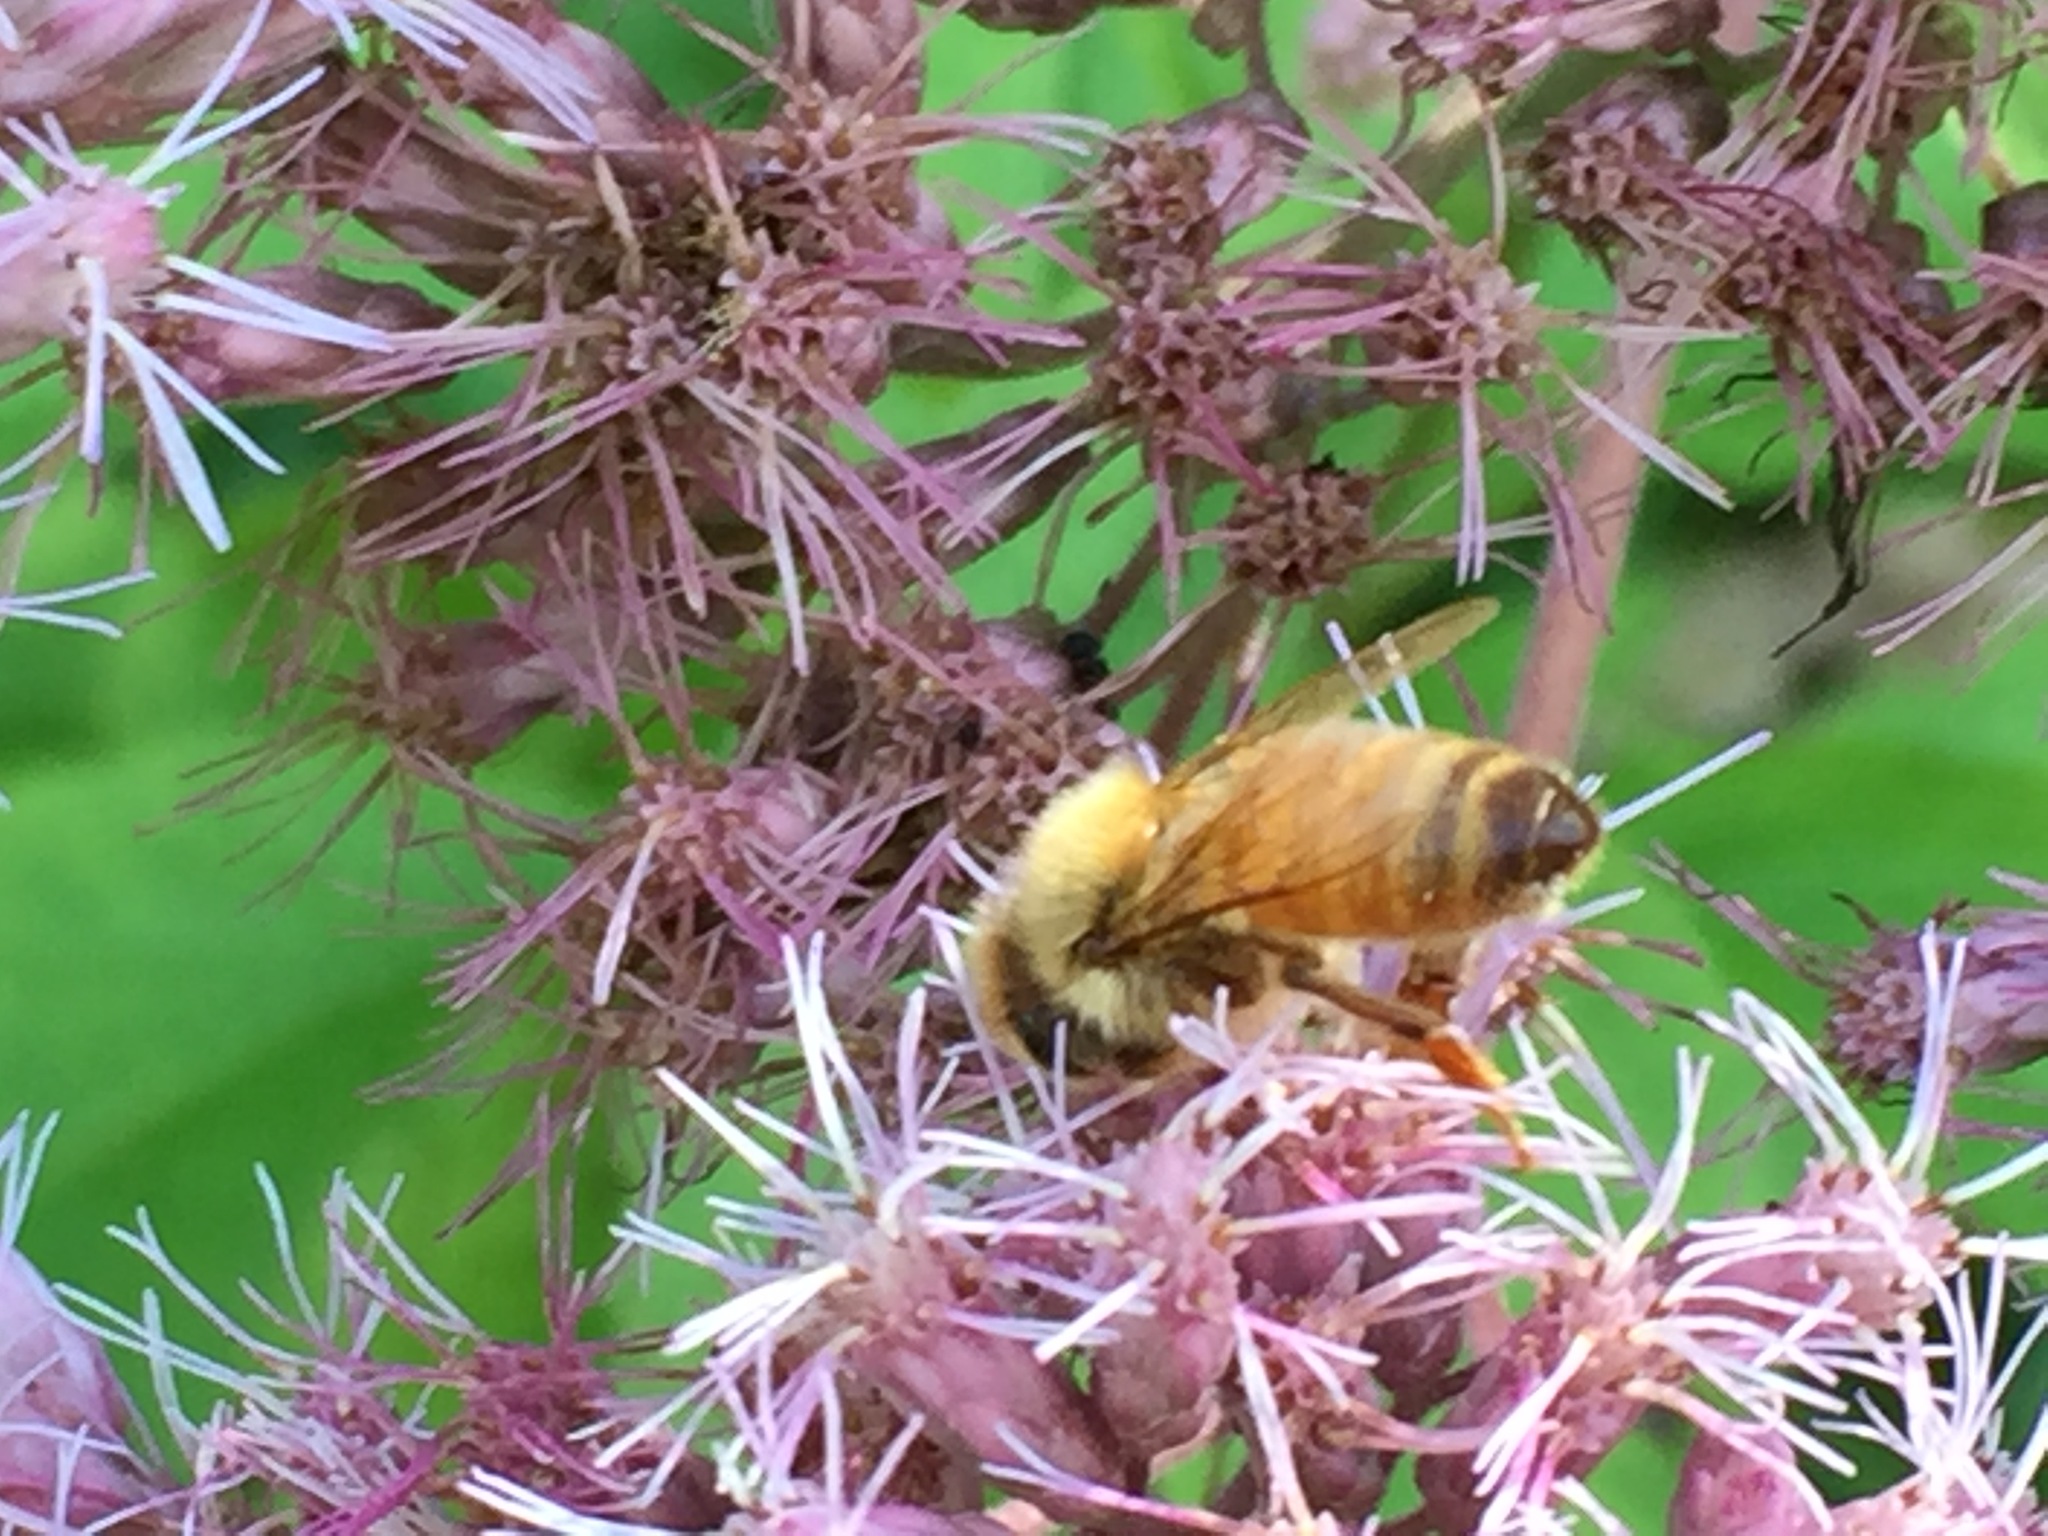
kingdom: Animalia
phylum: Arthropoda
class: Insecta
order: Hymenoptera
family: Apidae
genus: Apis
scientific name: Apis mellifera
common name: Honey bee
